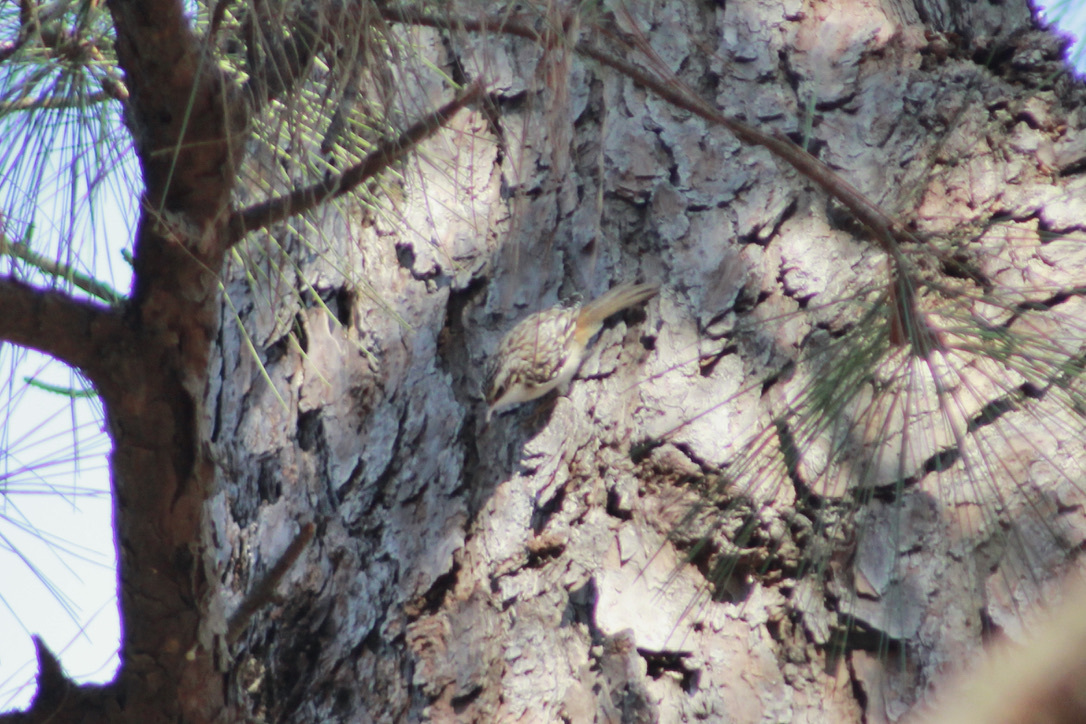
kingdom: Animalia
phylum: Chordata
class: Aves
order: Passeriformes
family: Certhiidae
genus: Certhia
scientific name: Certhia americana
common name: Brown creeper
